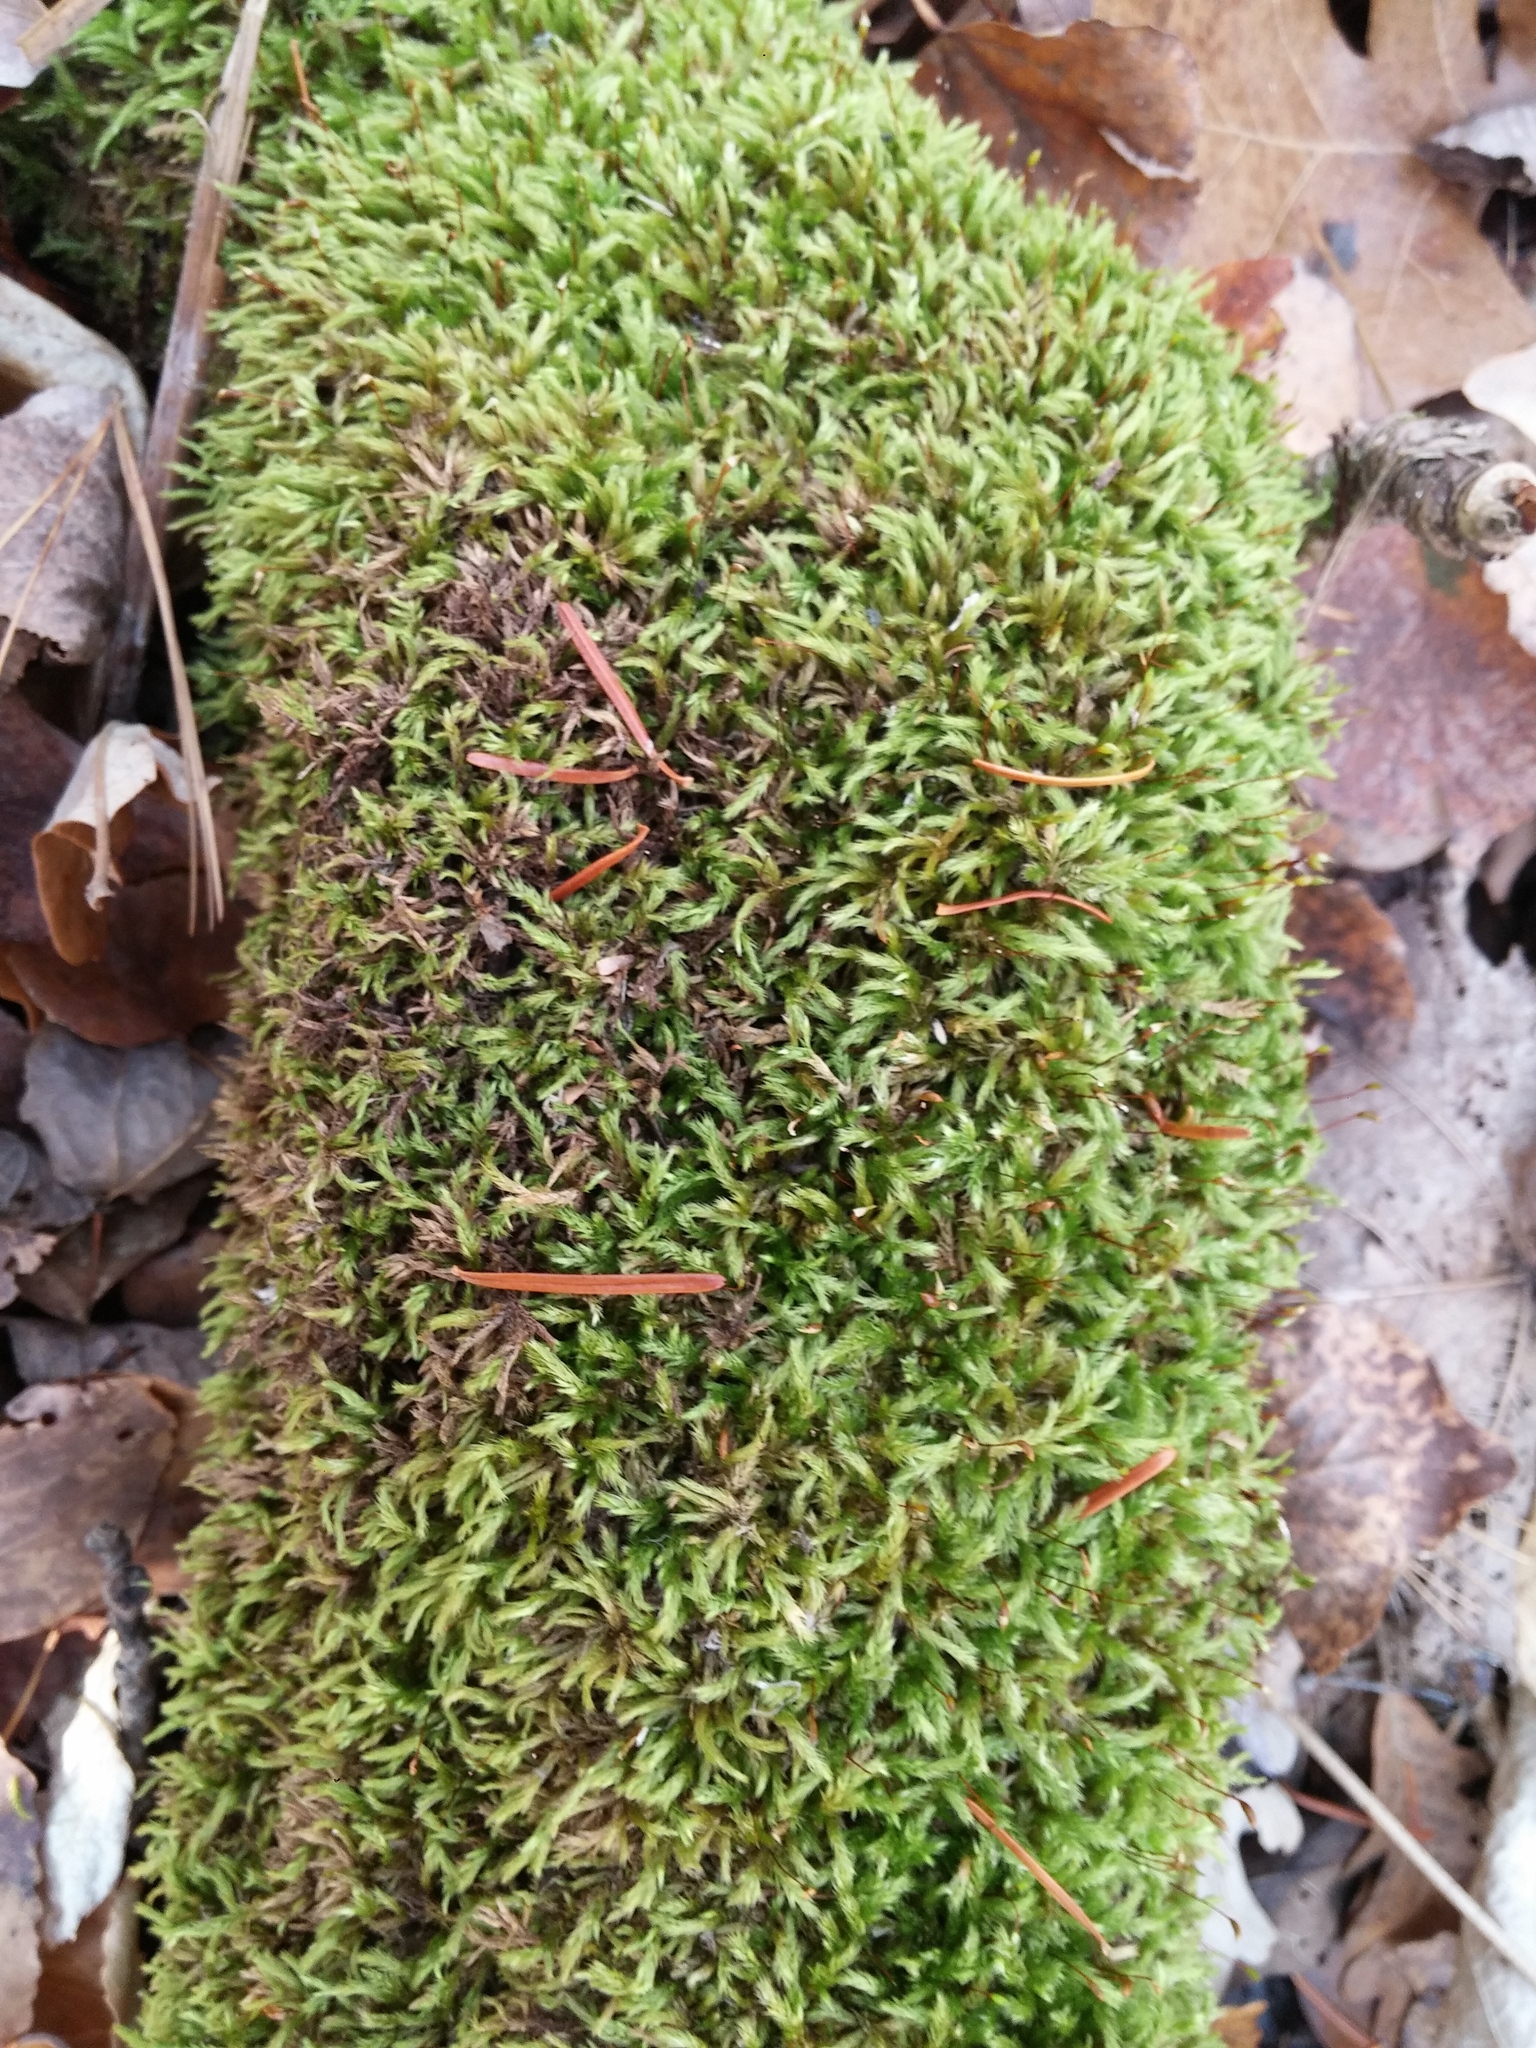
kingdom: Plantae
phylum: Bryophyta
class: Bryopsida
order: Hypnales
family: Callicladiaceae
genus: Callicladium
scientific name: Callicladium haldanianum
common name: Beautiful branch moss
